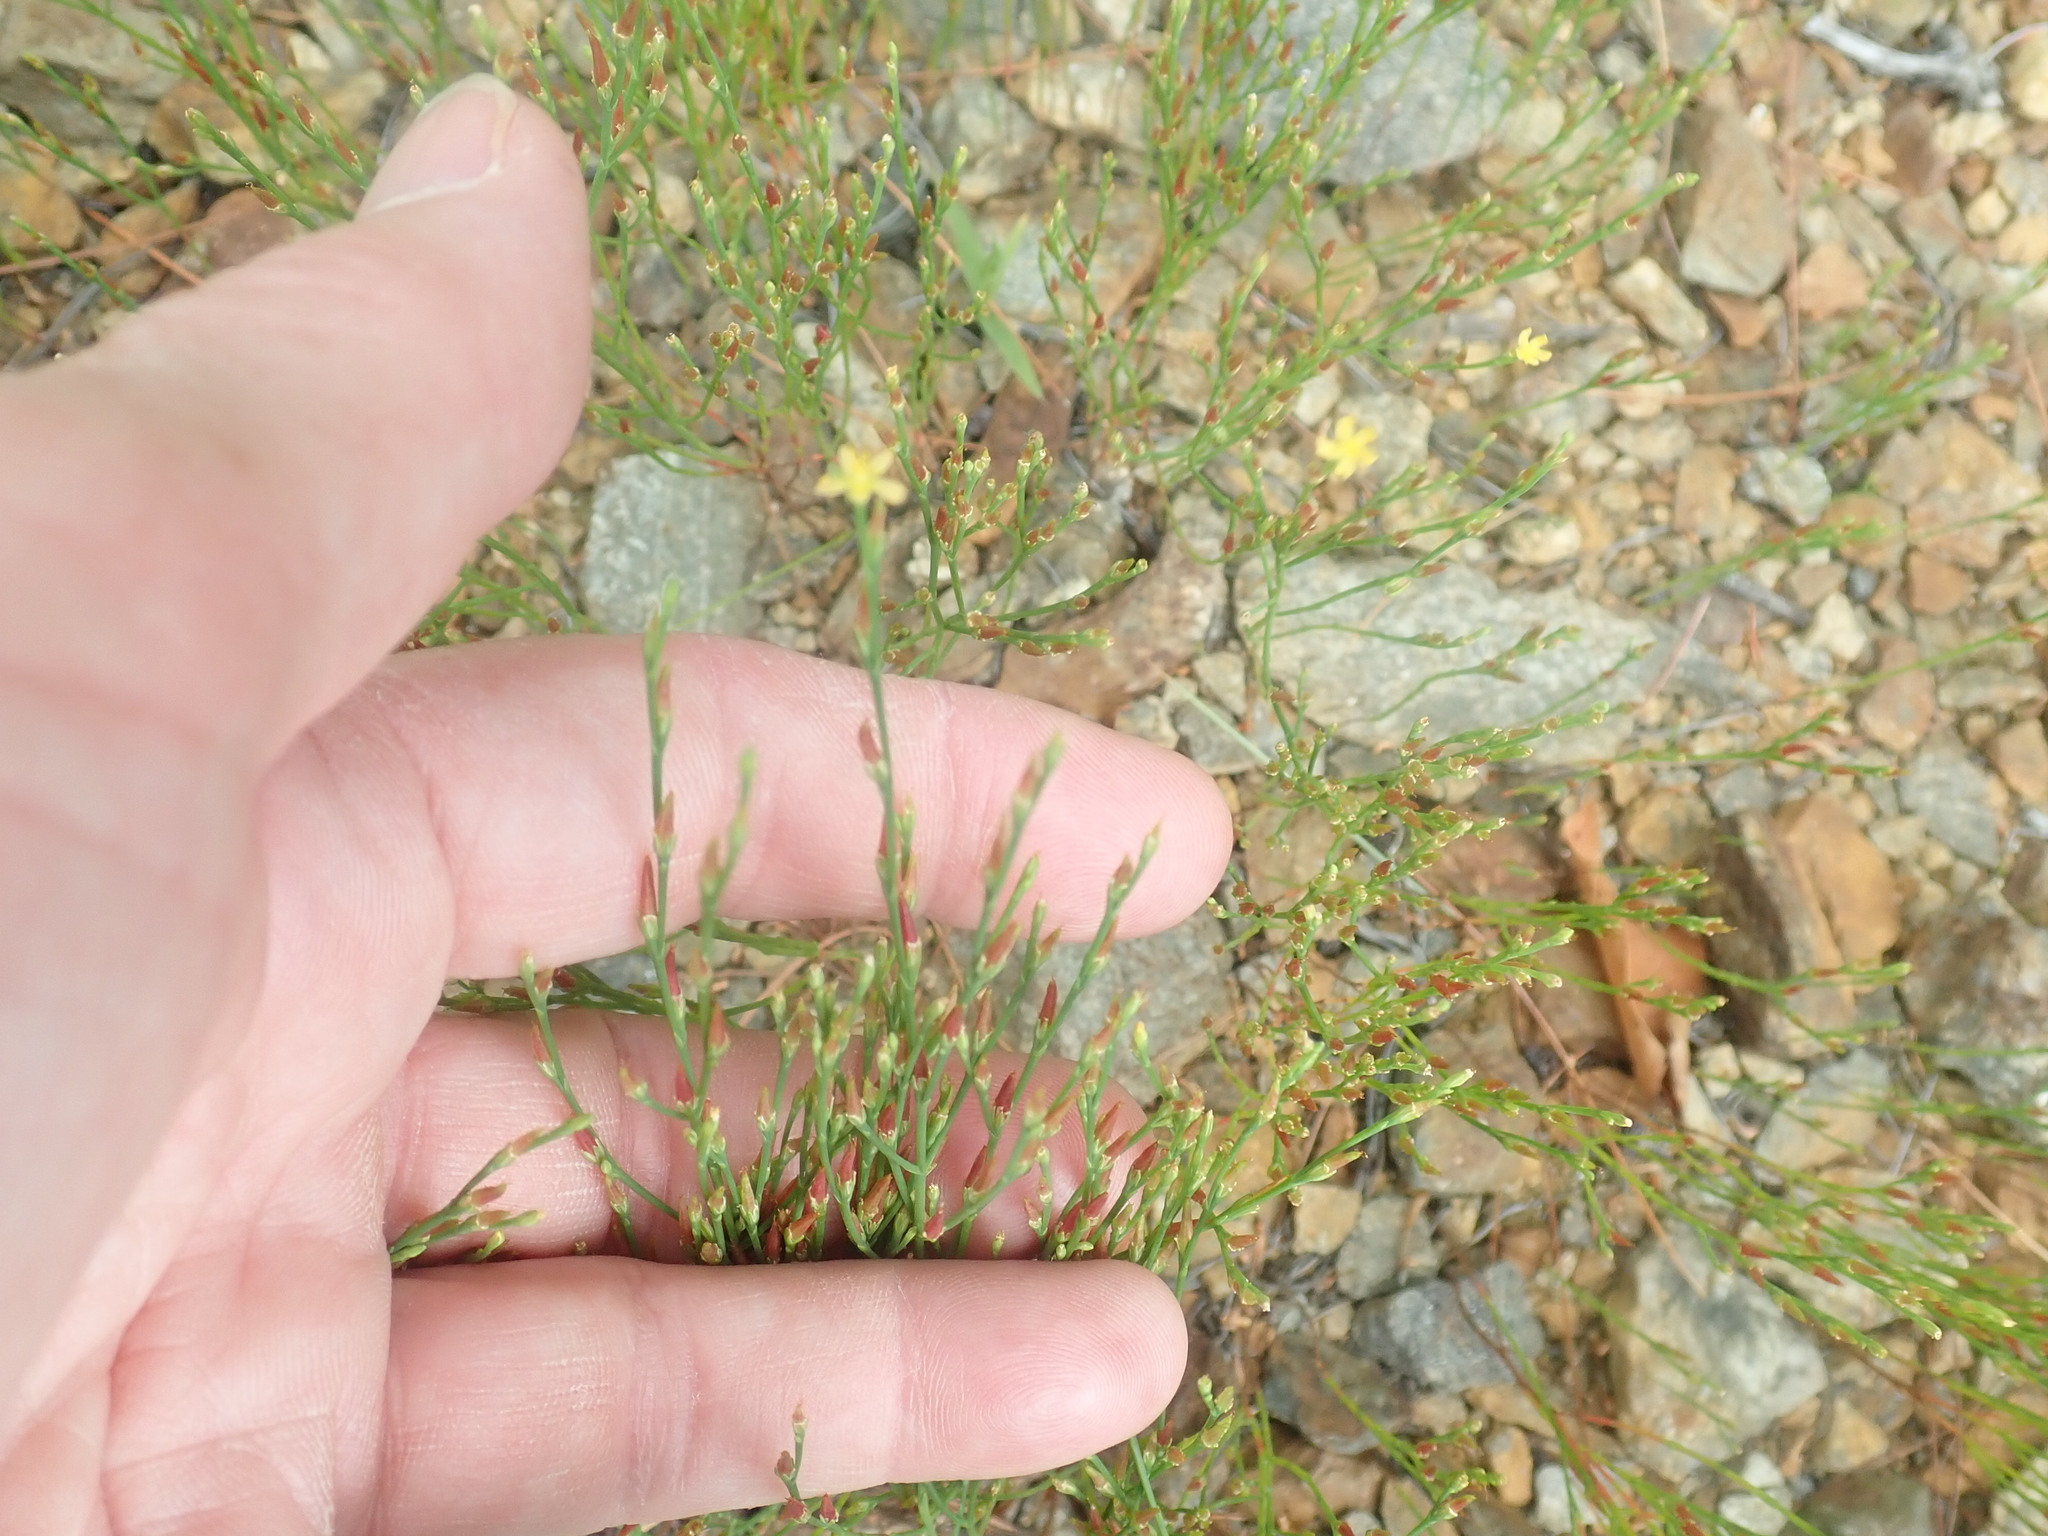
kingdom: Plantae
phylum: Tracheophyta
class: Magnoliopsida
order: Malpighiales
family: Hypericaceae
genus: Hypericum
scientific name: Hypericum gentianoides
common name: Gentian-leaved st. john's-wort
